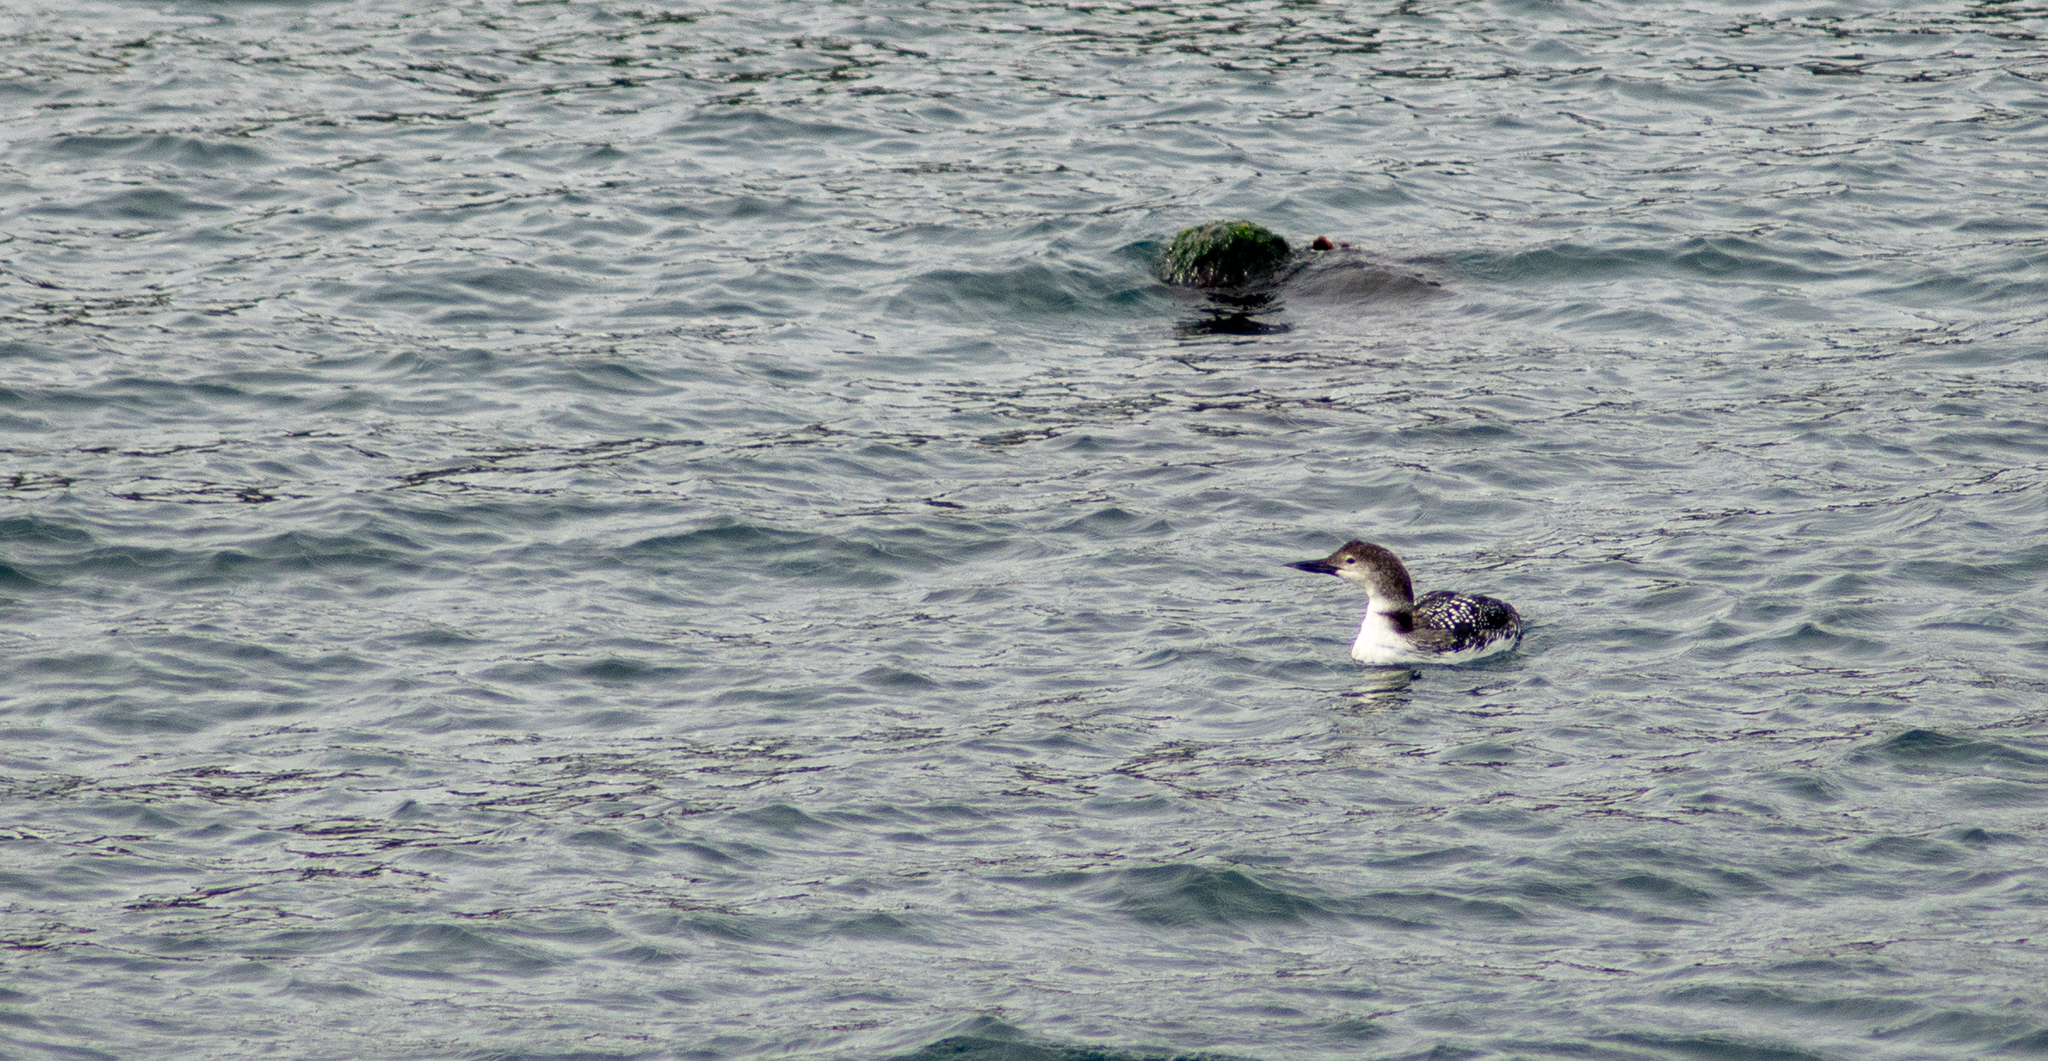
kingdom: Animalia
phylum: Chordata
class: Aves
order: Gaviiformes
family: Gaviidae
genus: Gavia
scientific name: Gavia immer
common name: Common loon
